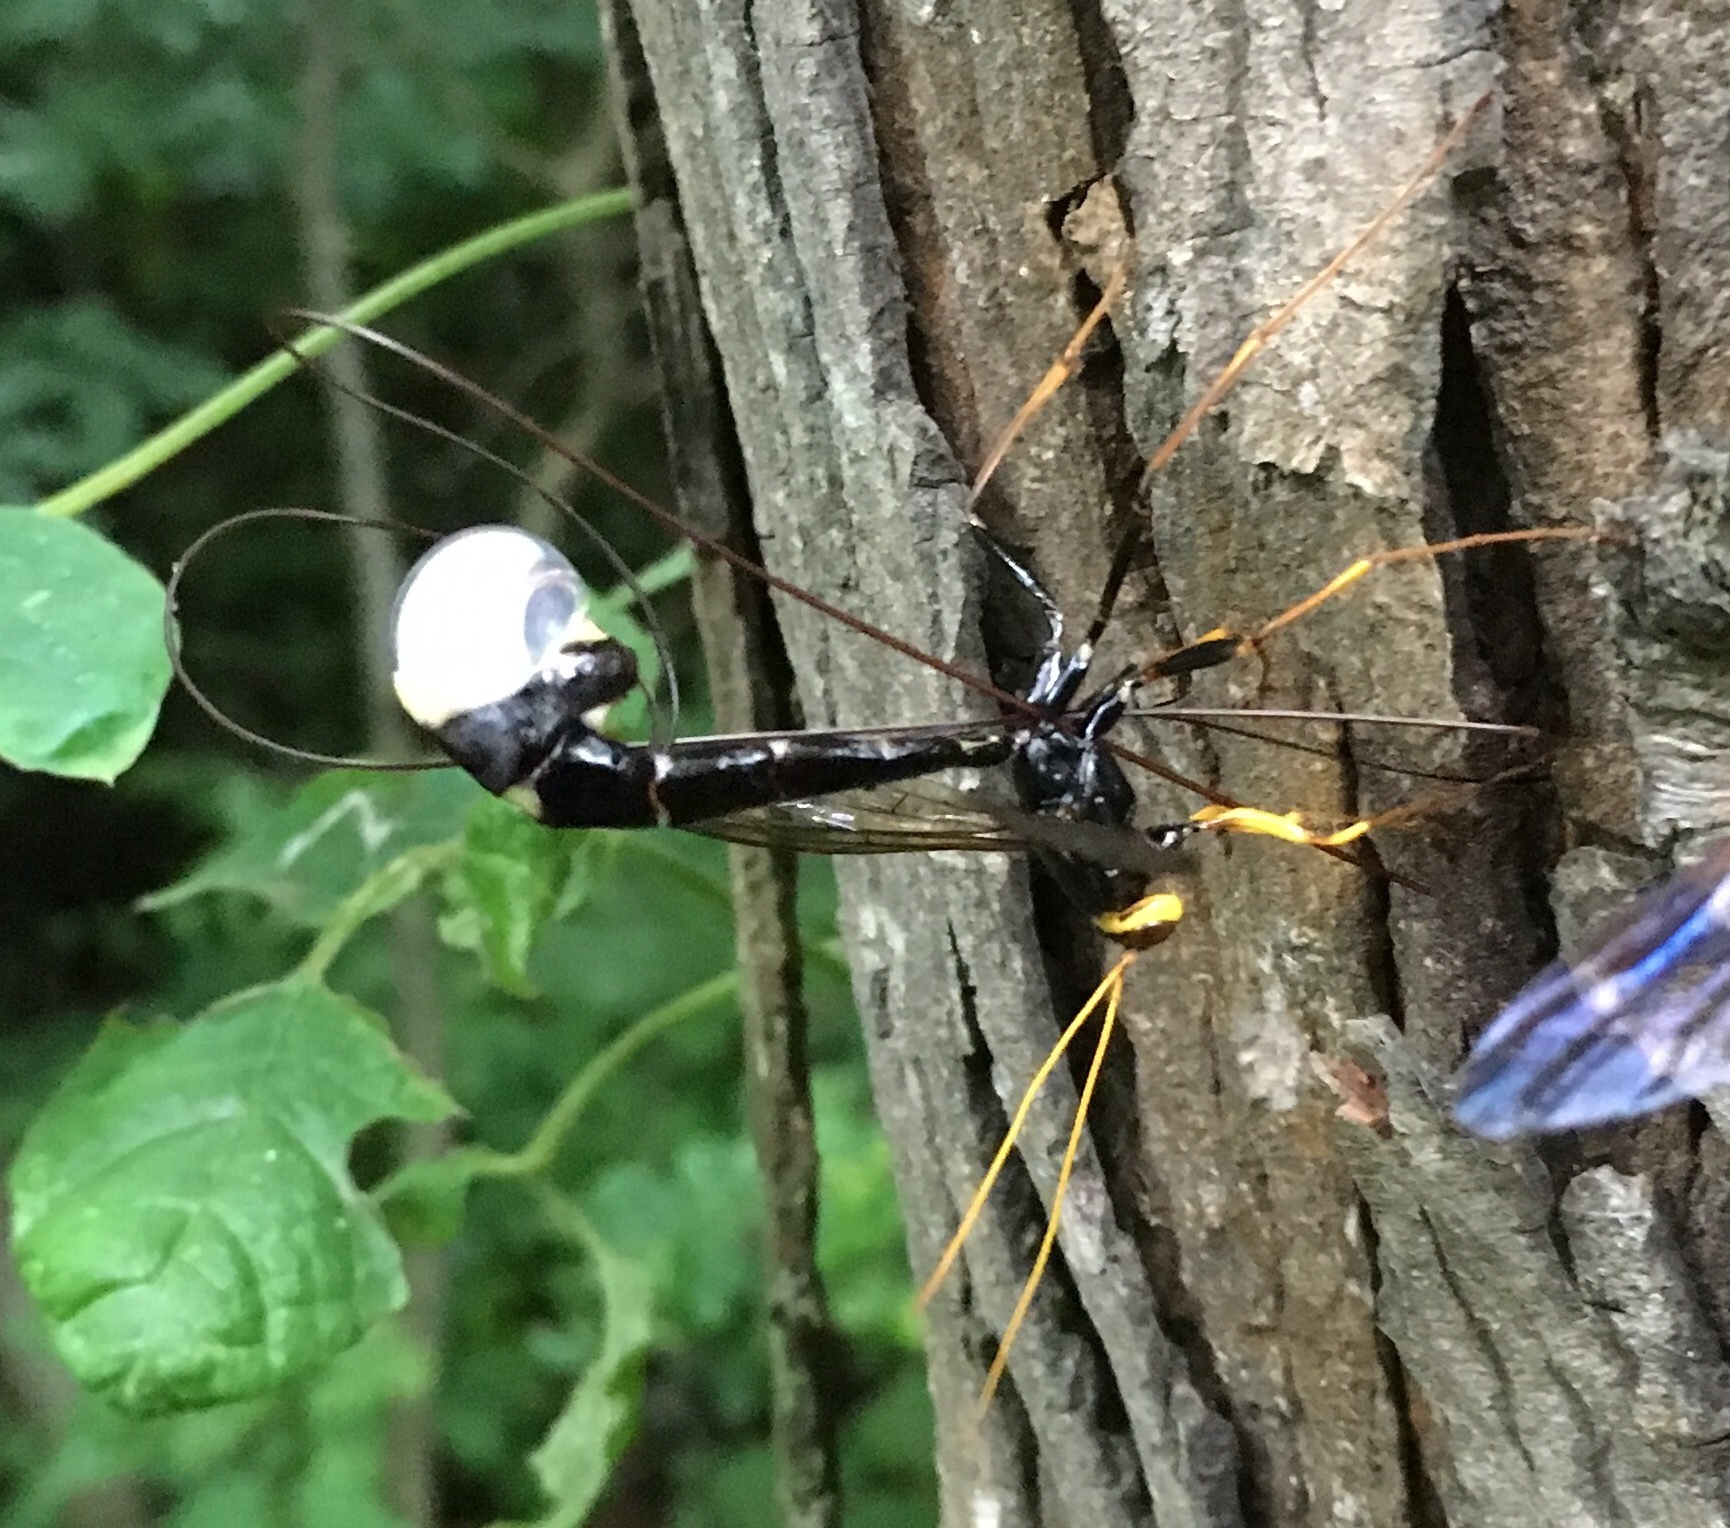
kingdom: Animalia
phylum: Arthropoda
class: Insecta
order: Hymenoptera
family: Ichneumonidae
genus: Megarhyssa
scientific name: Megarhyssa atrata
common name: Black giant ichneumonid wasp
